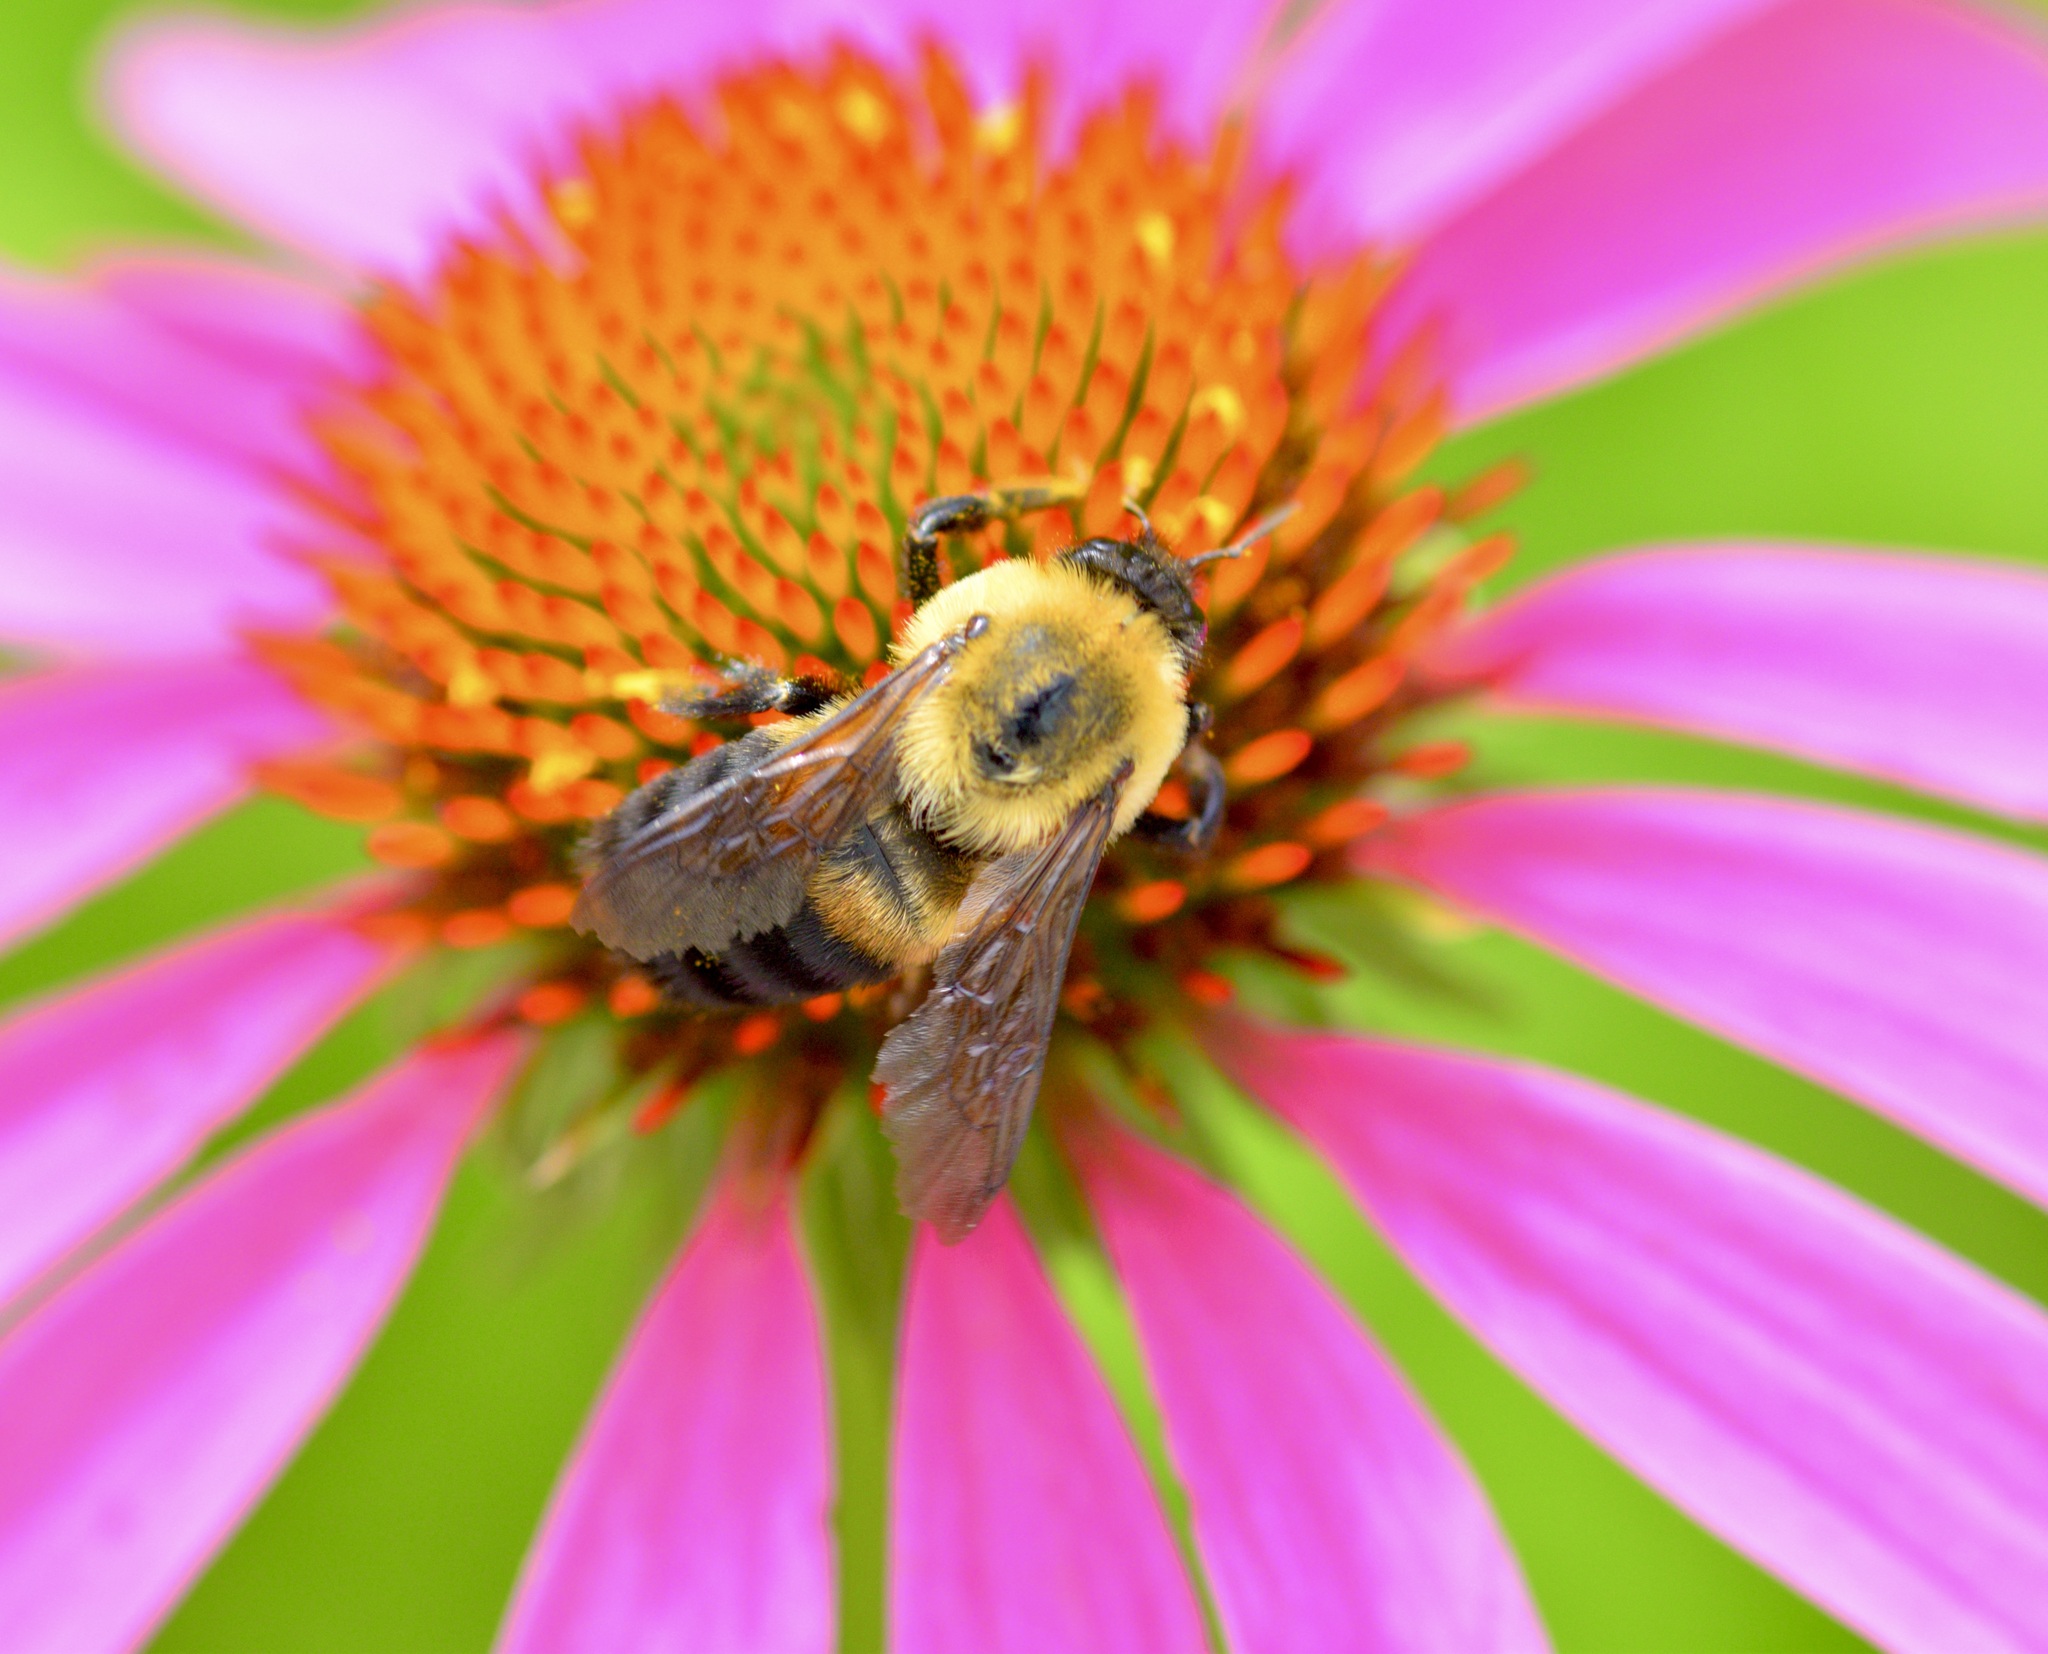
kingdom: Animalia
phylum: Arthropoda
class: Insecta
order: Hymenoptera
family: Apidae
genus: Bombus
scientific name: Bombus griseocollis
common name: Brown-belted bumble bee
